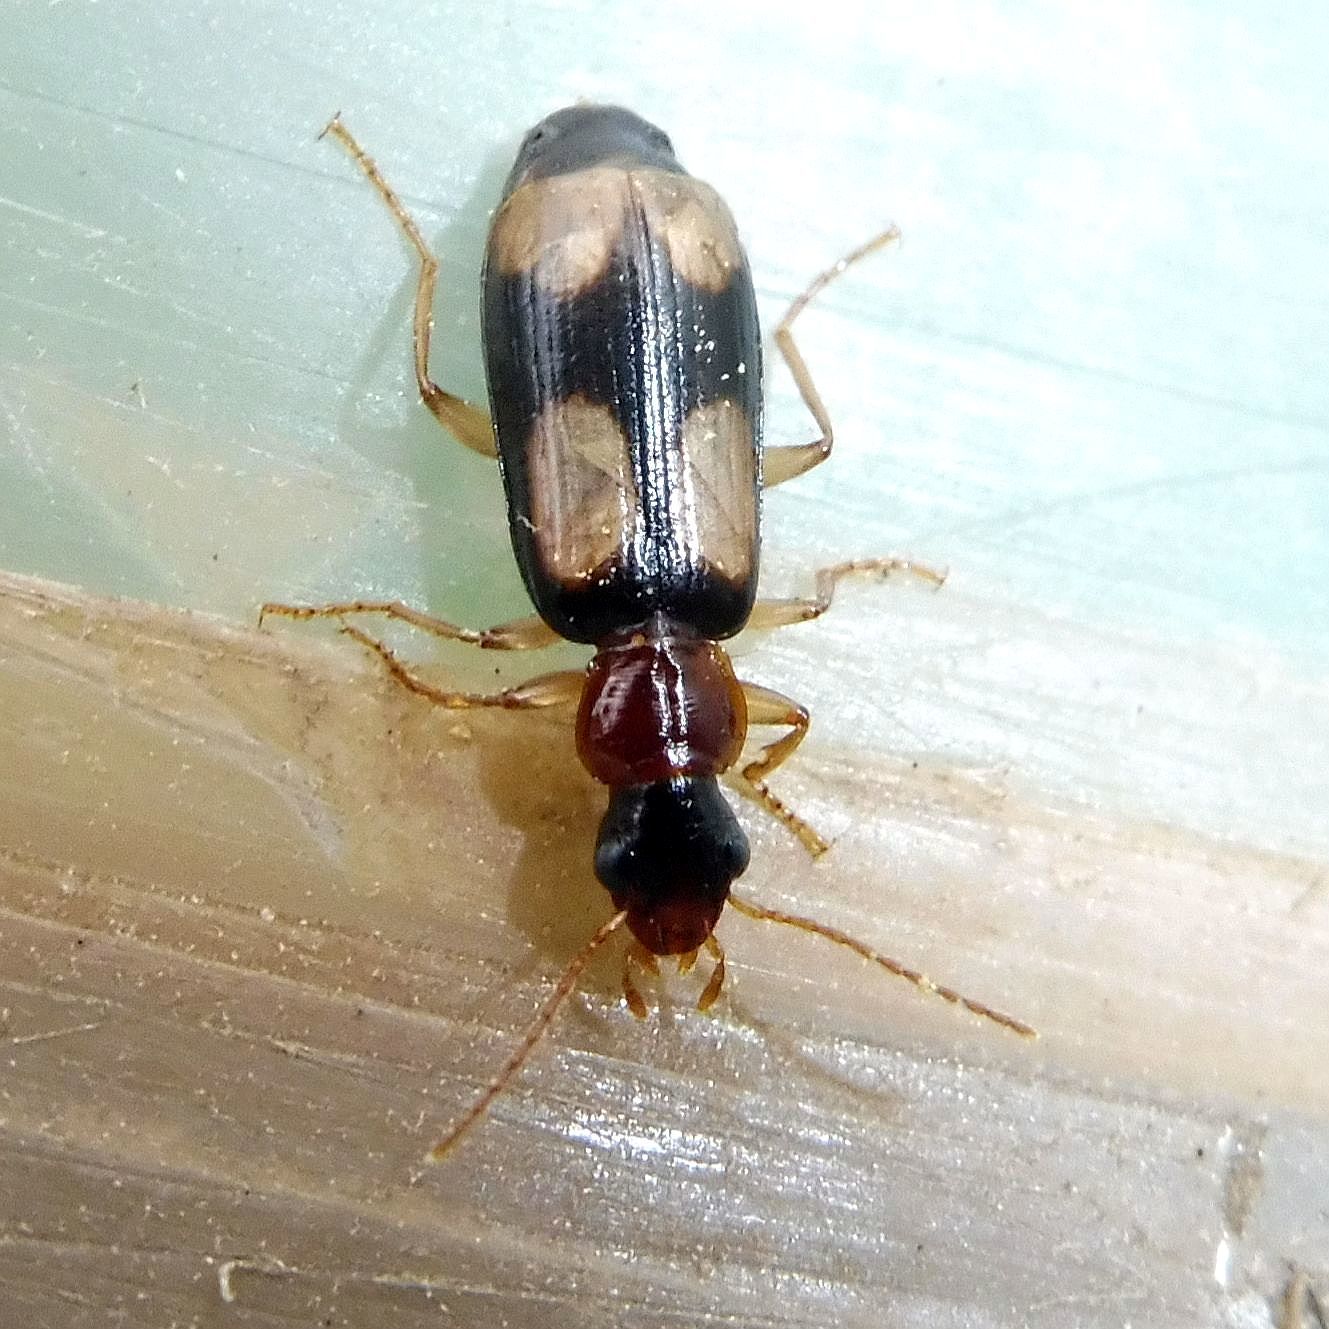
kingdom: Animalia
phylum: Arthropoda
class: Insecta
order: Coleoptera
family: Carabidae
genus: Dromius
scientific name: Dromius quadrimaculatus
